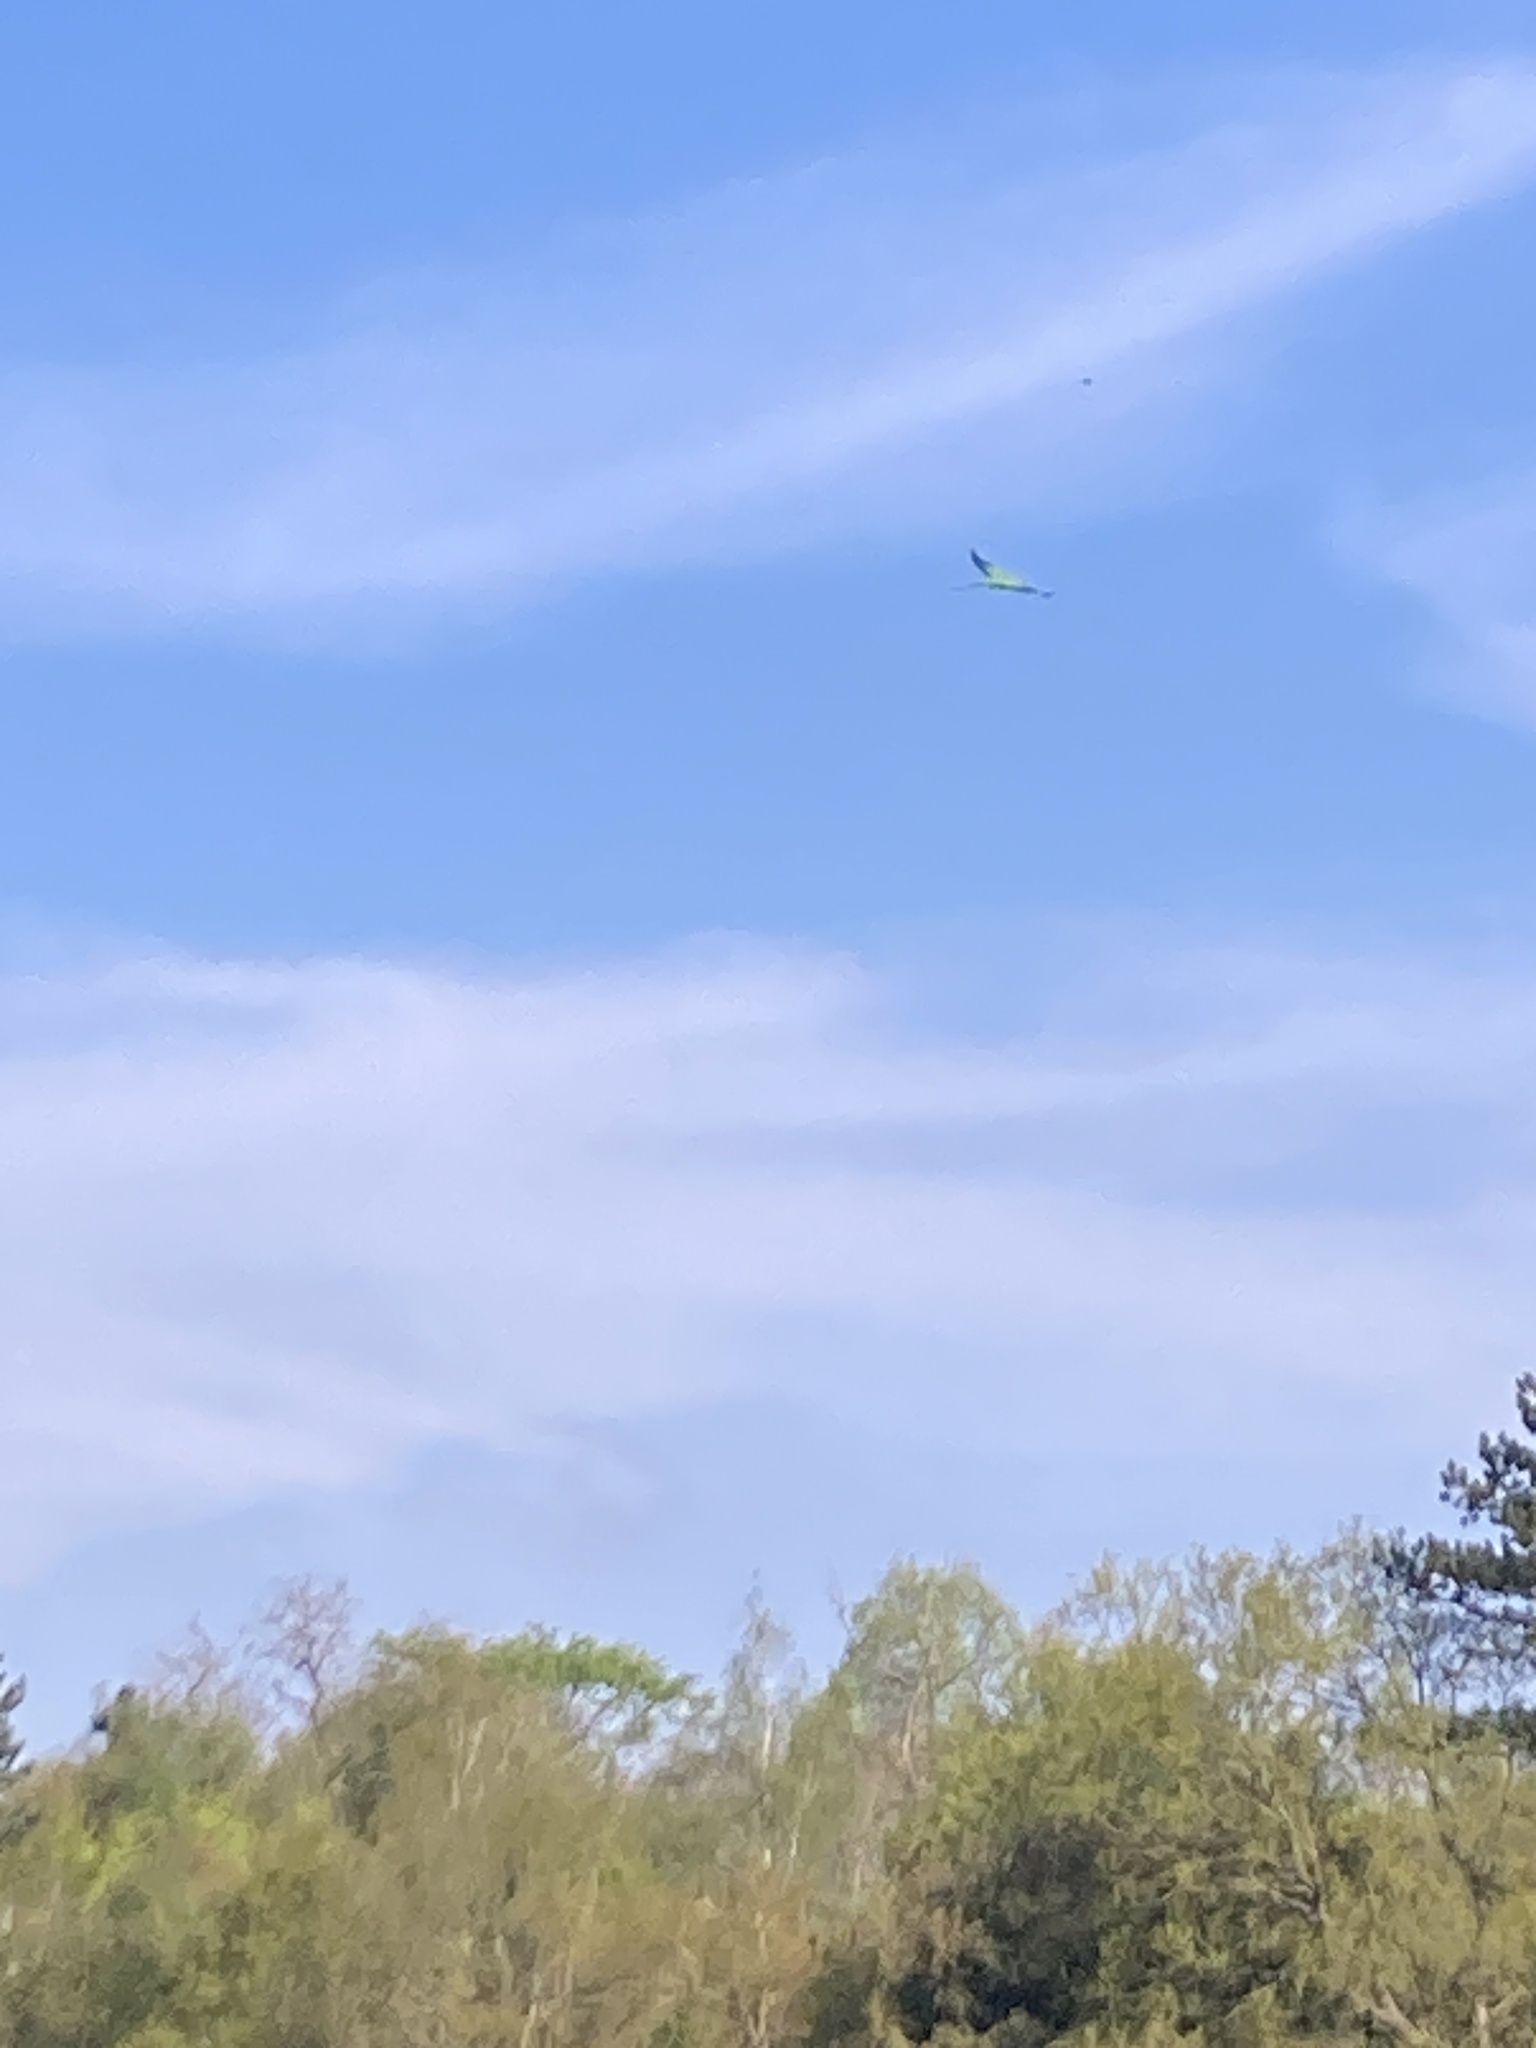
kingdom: Animalia
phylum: Chordata
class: Aves
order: Psittaciformes
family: Psittacidae
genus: Psittacula
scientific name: Psittacula krameri
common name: Rose-ringed parakeet
